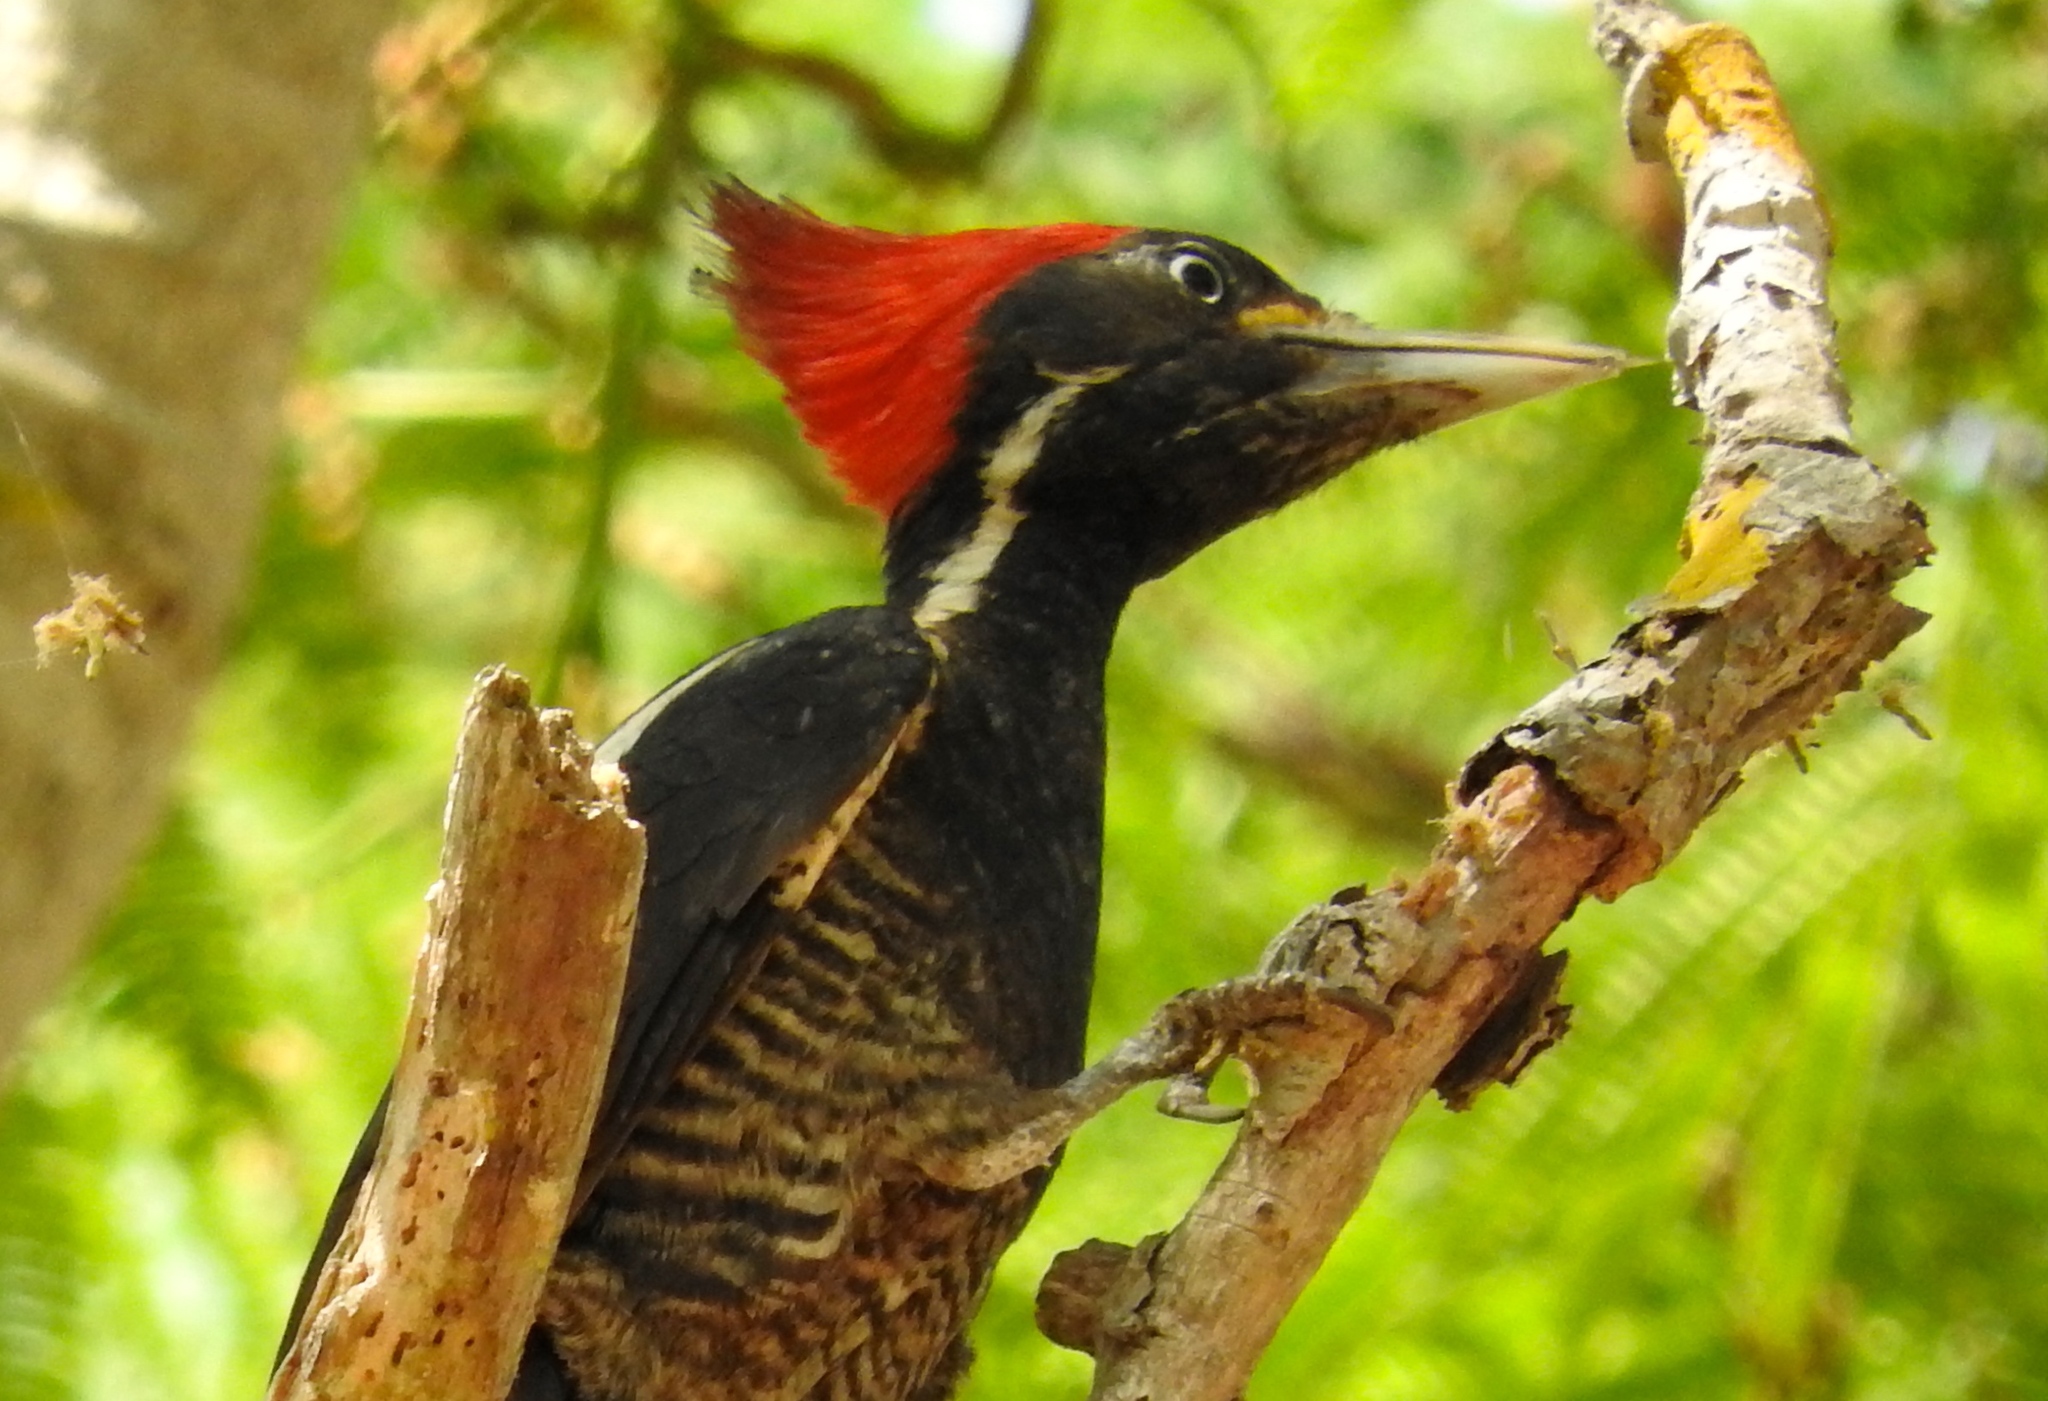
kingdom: Animalia
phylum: Chordata
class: Aves
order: Piciformes
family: Picidae
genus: Dryocopus
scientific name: Dryocopus lineatus
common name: Lineated woodpecker
